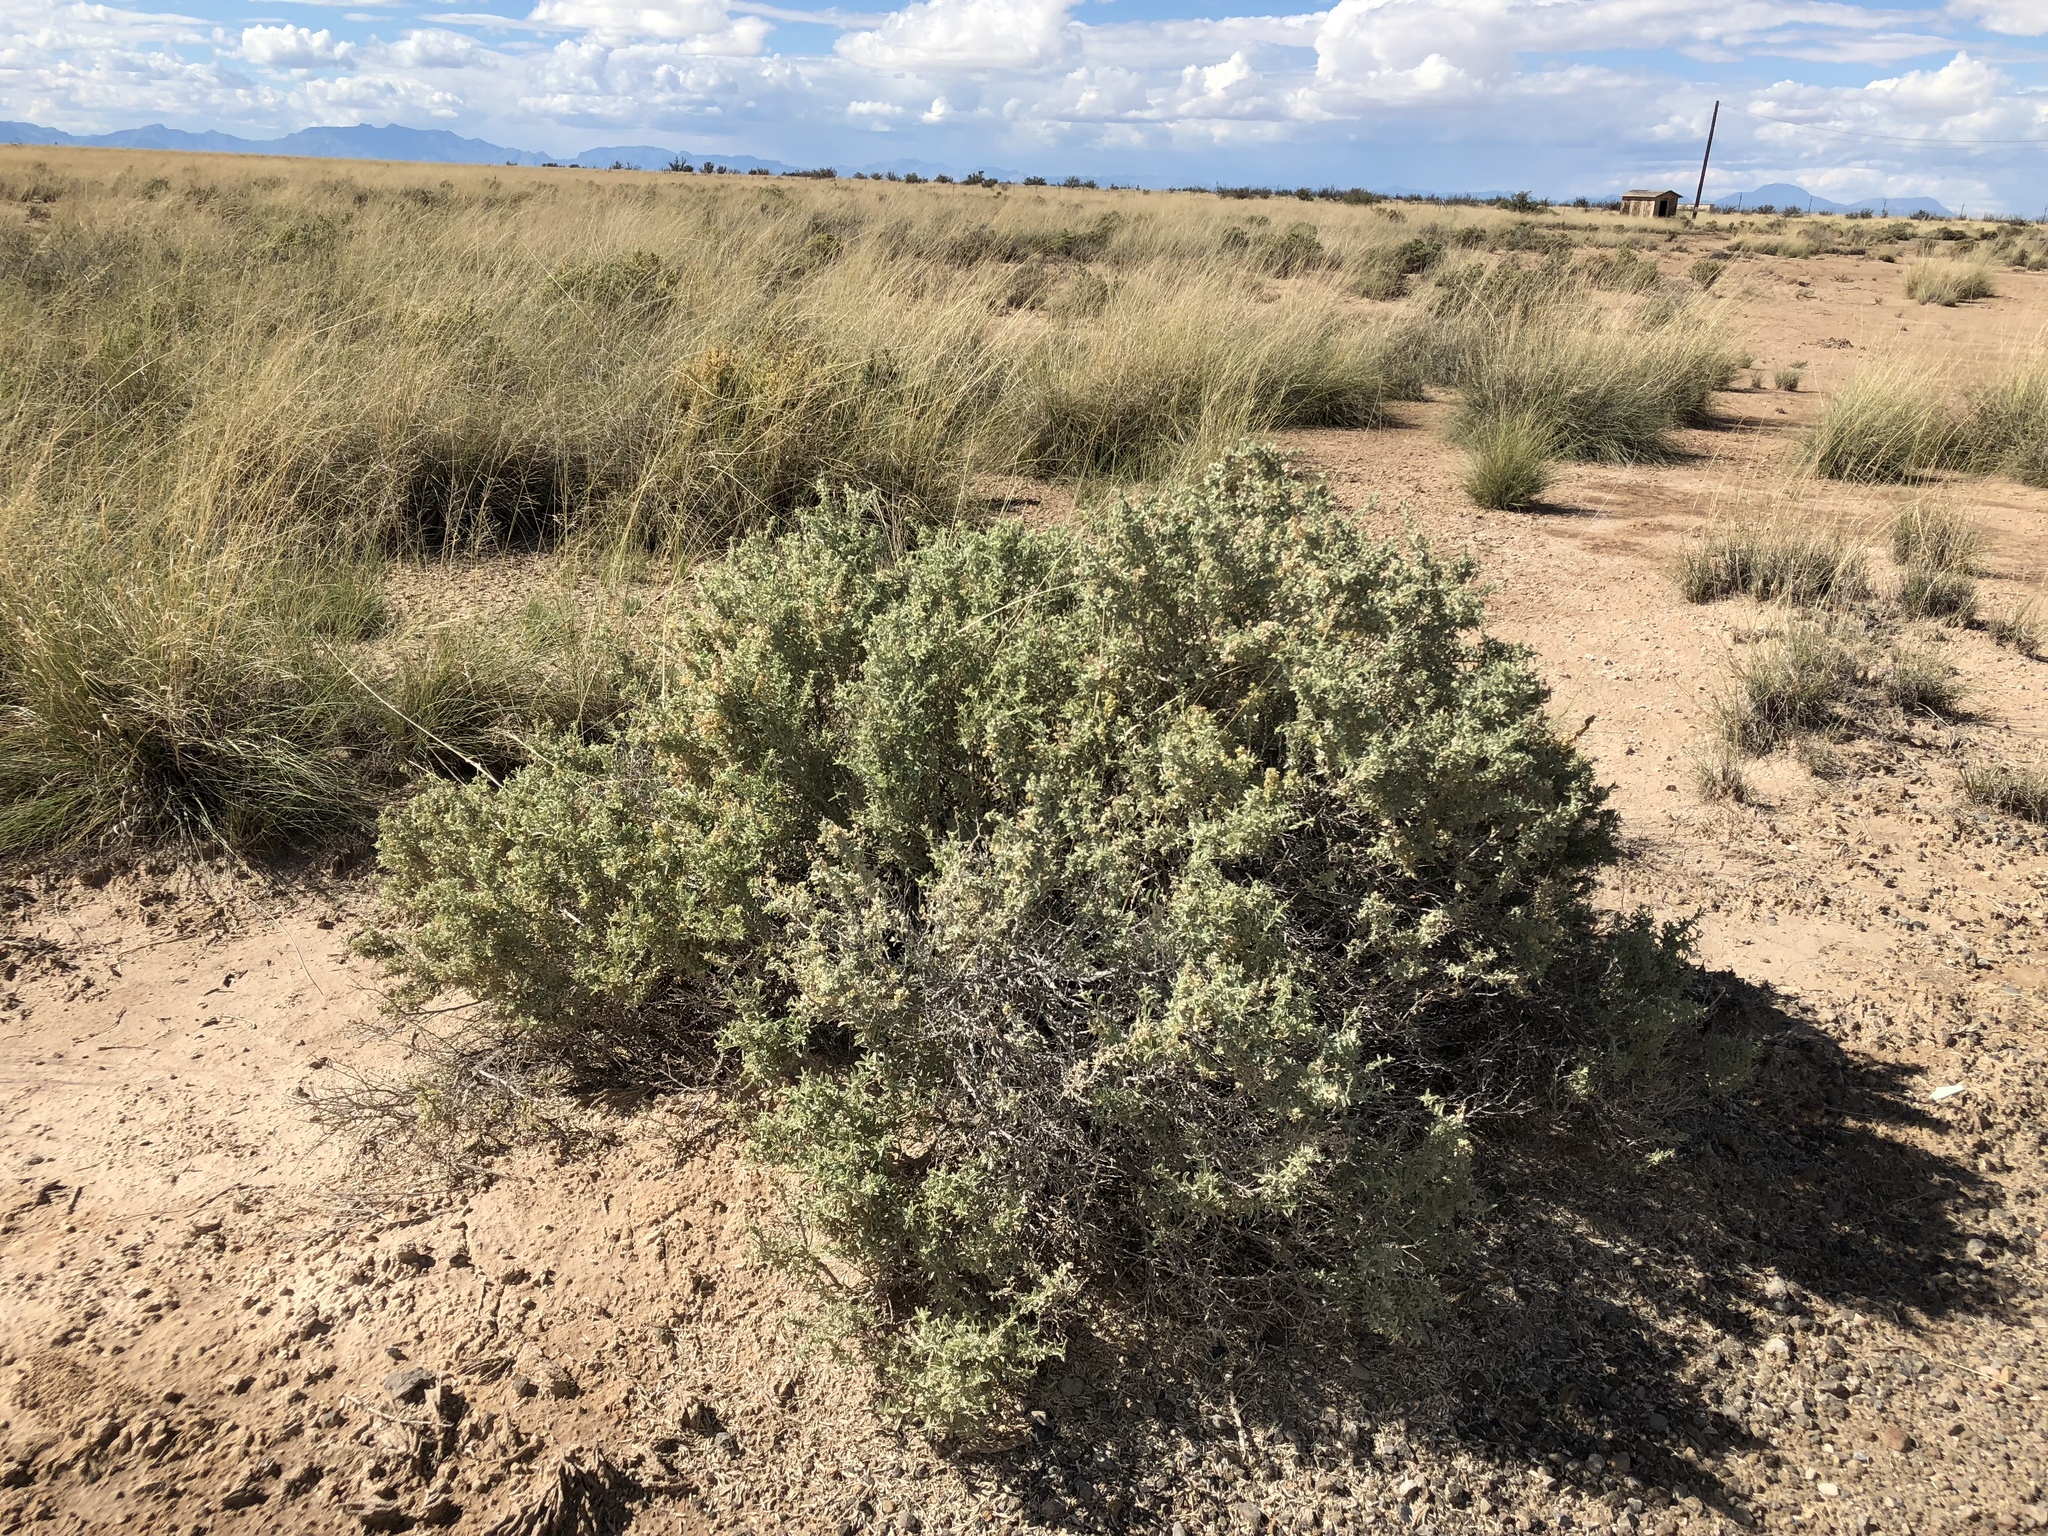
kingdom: Plantae
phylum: Tracheophyta
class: Magnoliopsida
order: Caryophyllales
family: Amaranthaceae
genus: Atriplex
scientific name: Atriplex canescens
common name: Four-wing saltbush
